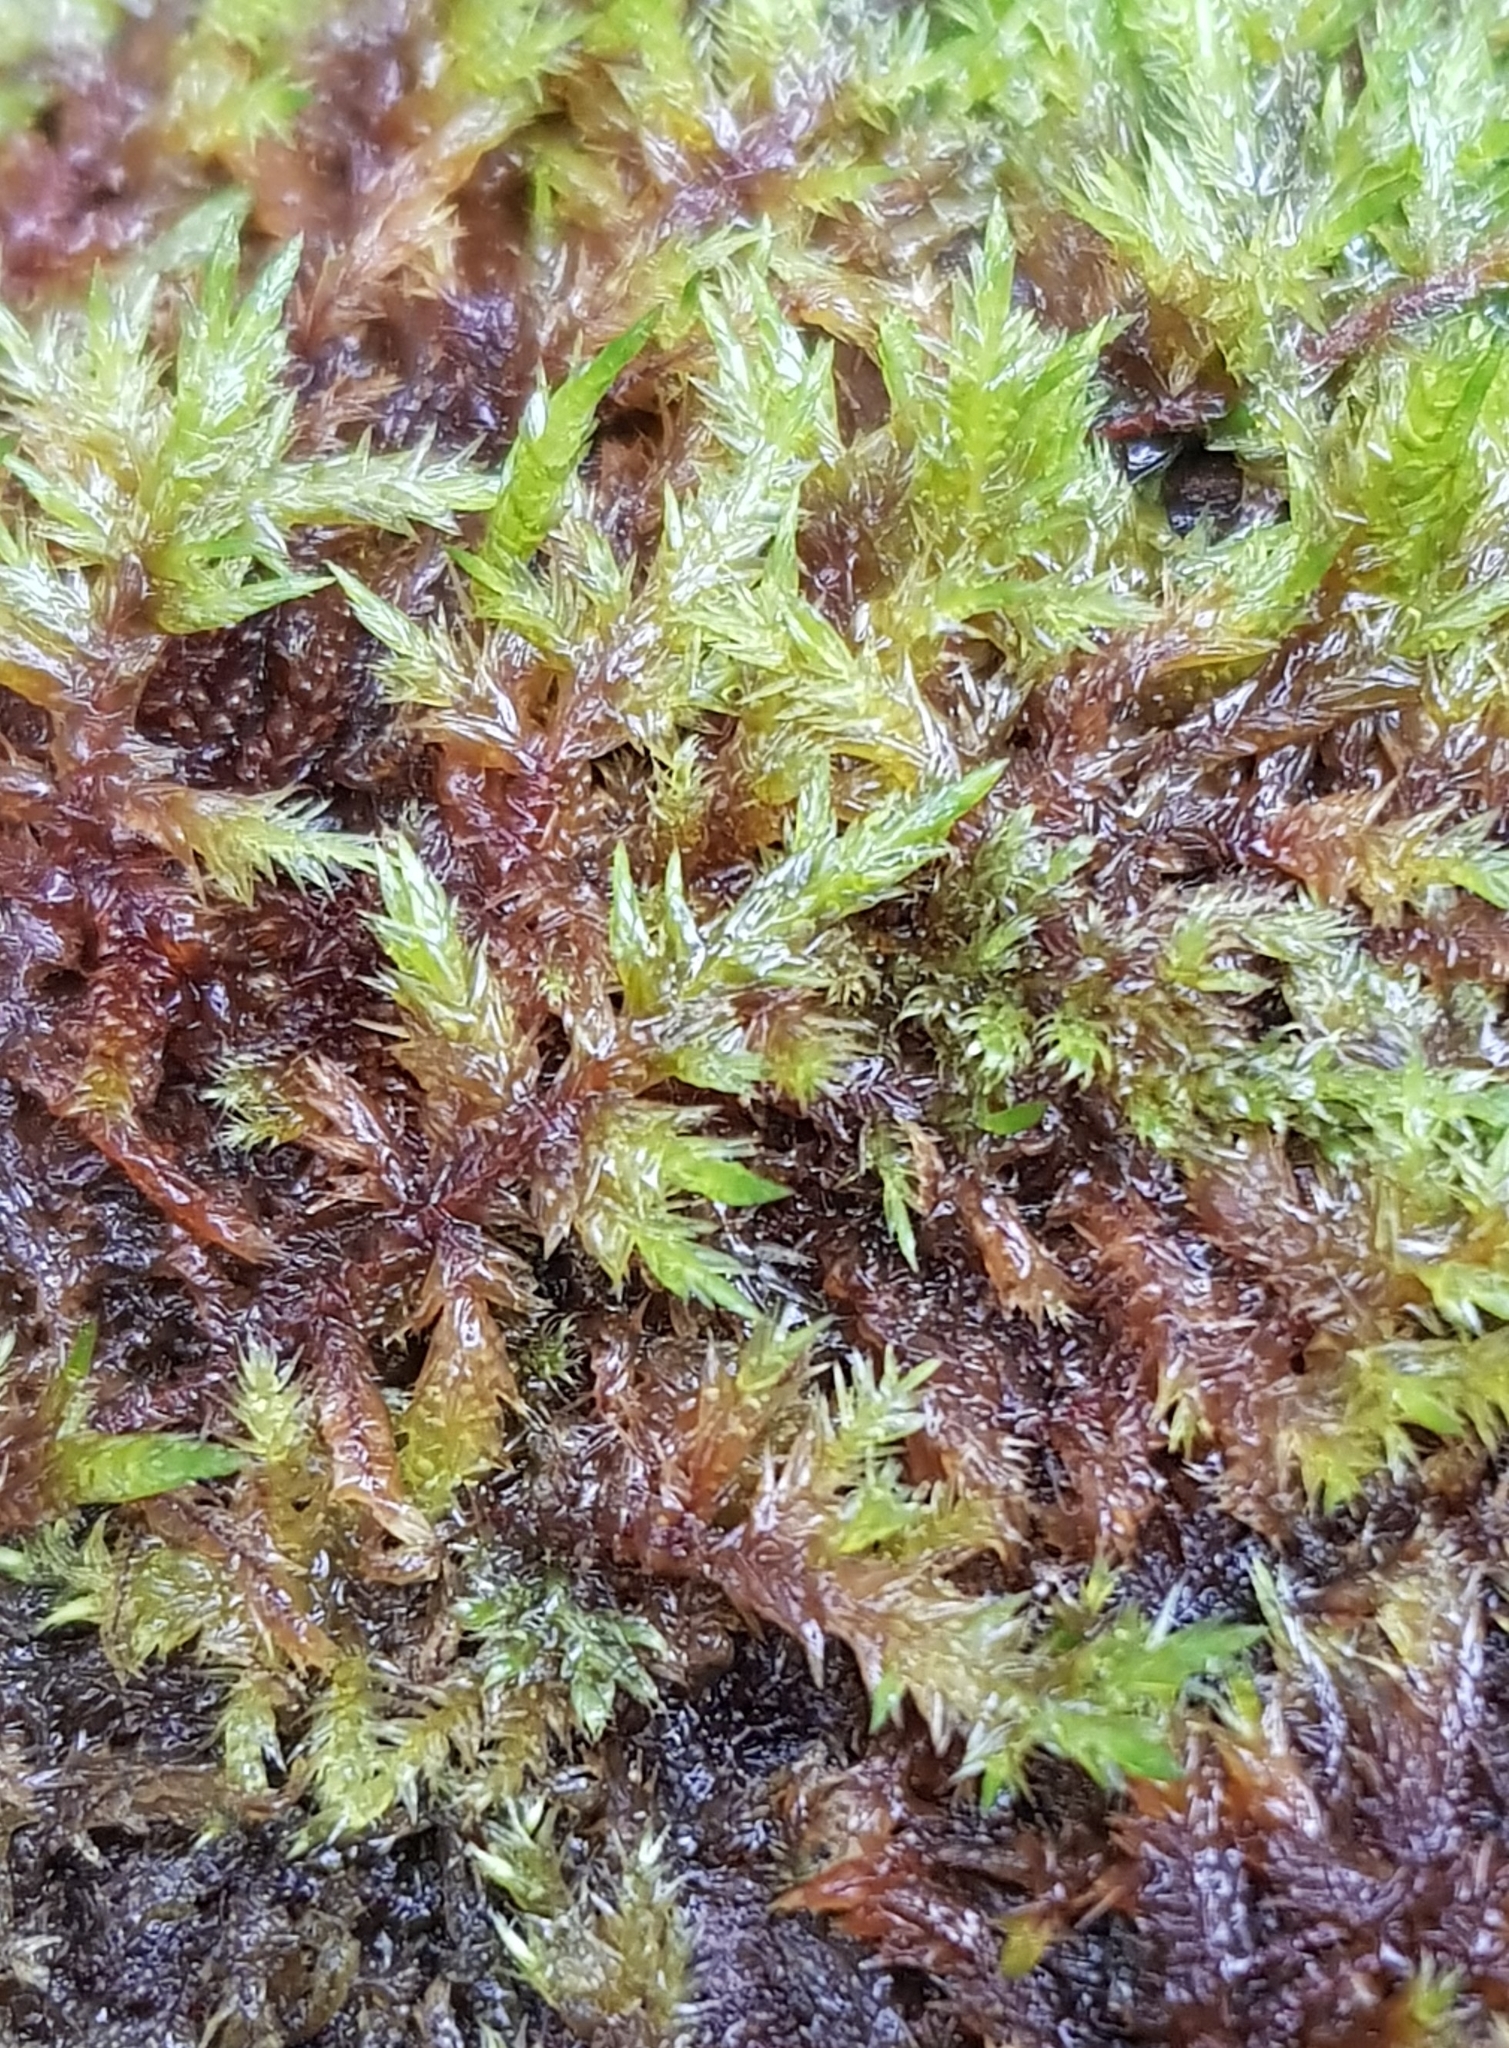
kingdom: Plantae
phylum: Bryophyta
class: Bryopsida
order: Hypnales
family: Pylaisiaceae
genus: Calliergonella
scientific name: Calliergonella cuspidata
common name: Common large wetland moss
